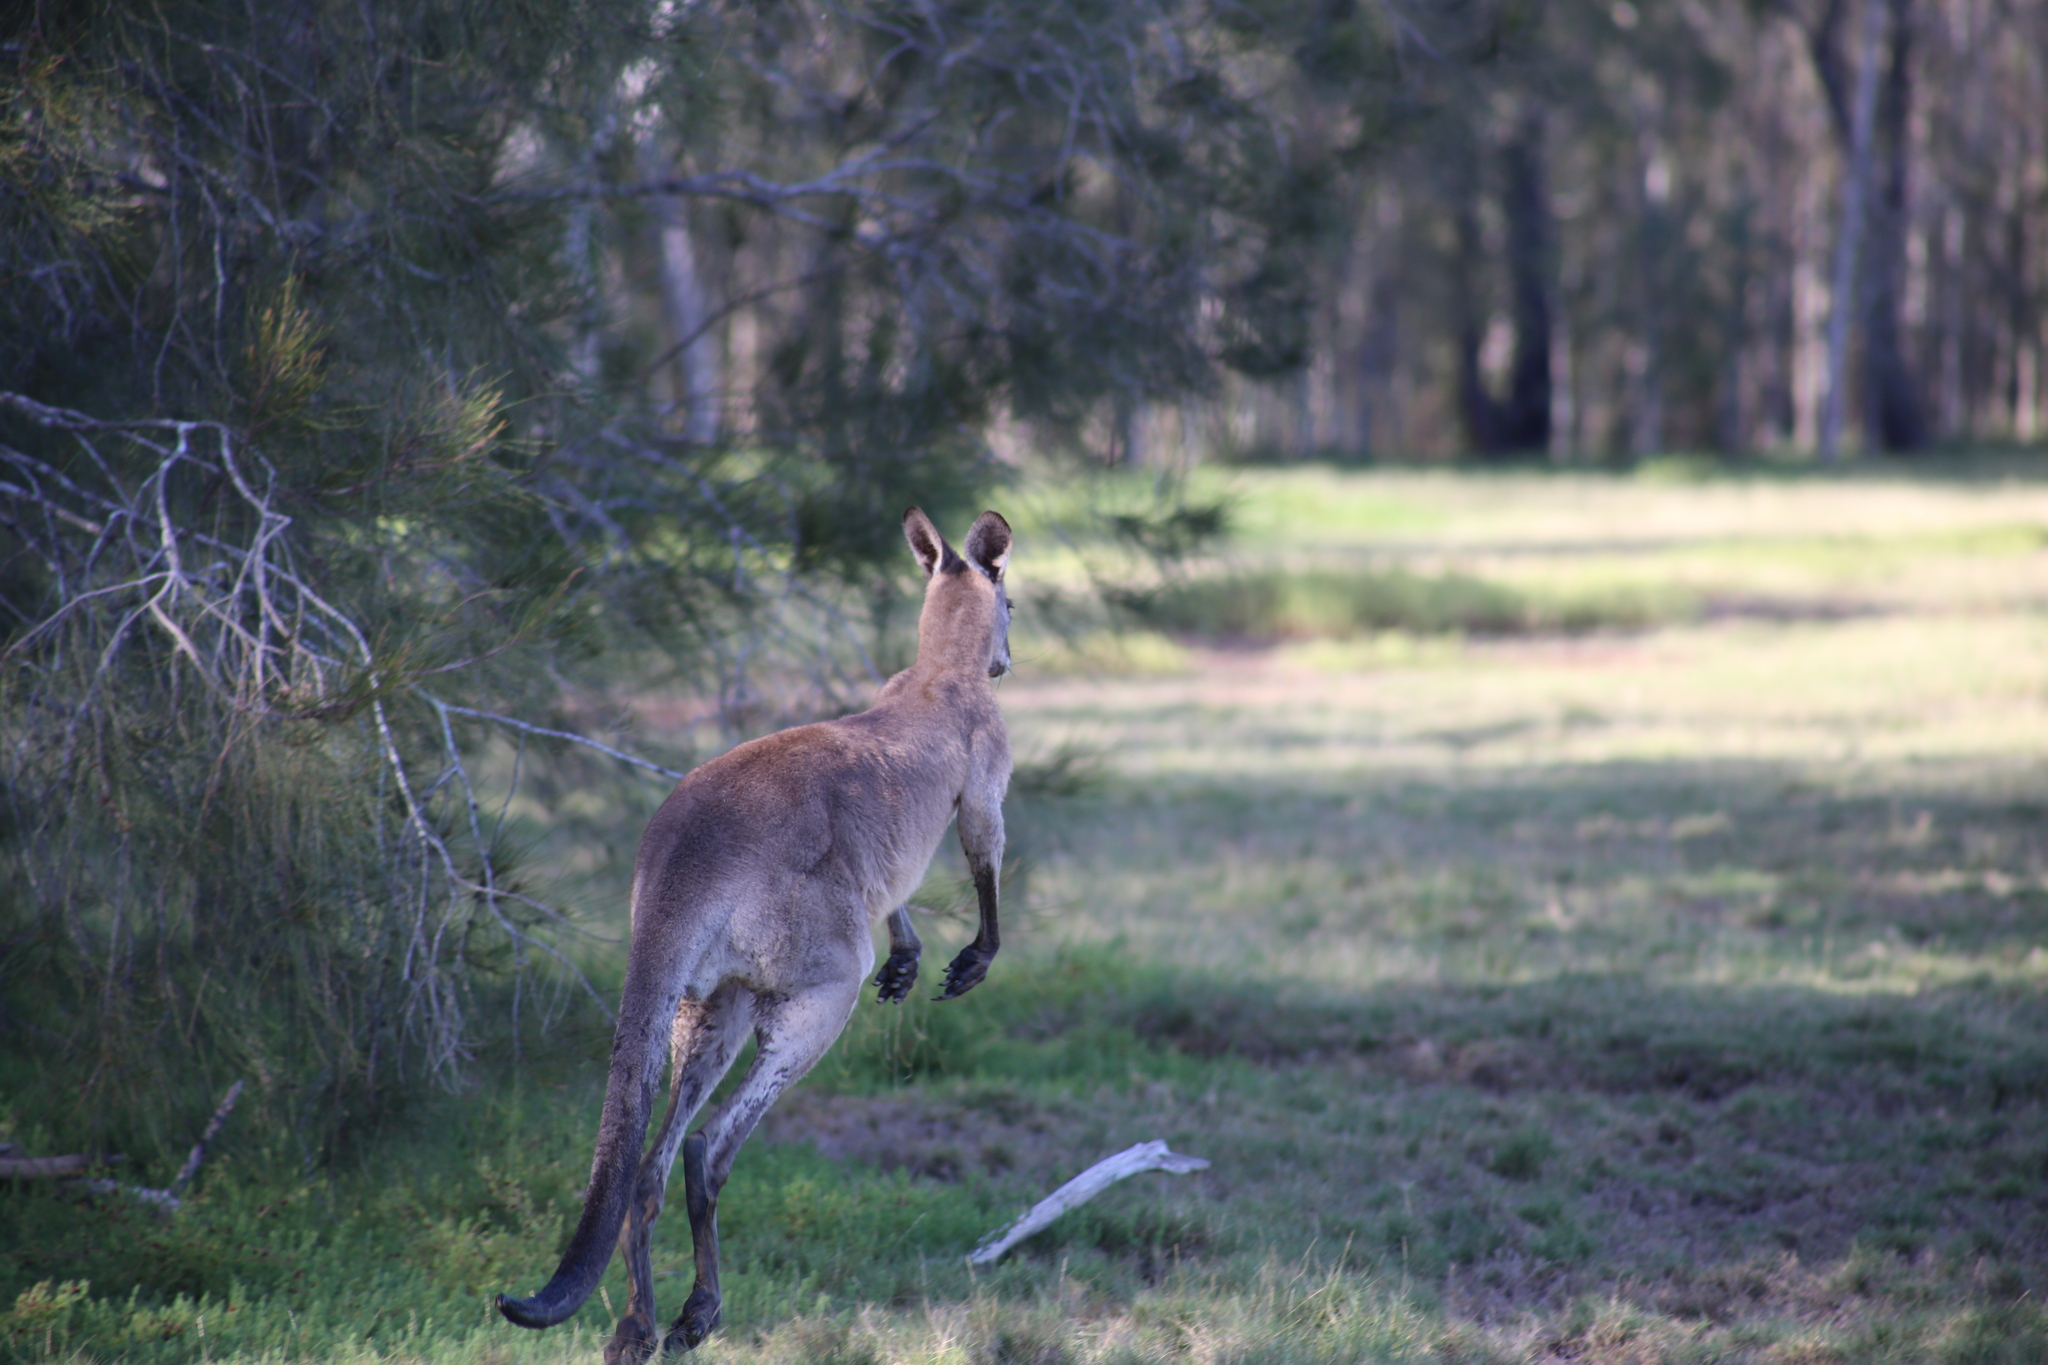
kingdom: Animalia
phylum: Chordata
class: Mammalia
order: Diprotodontia
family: Macropodidae
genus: Macropus
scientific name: Macropus giganteus
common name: Eastern grey kangaroo
